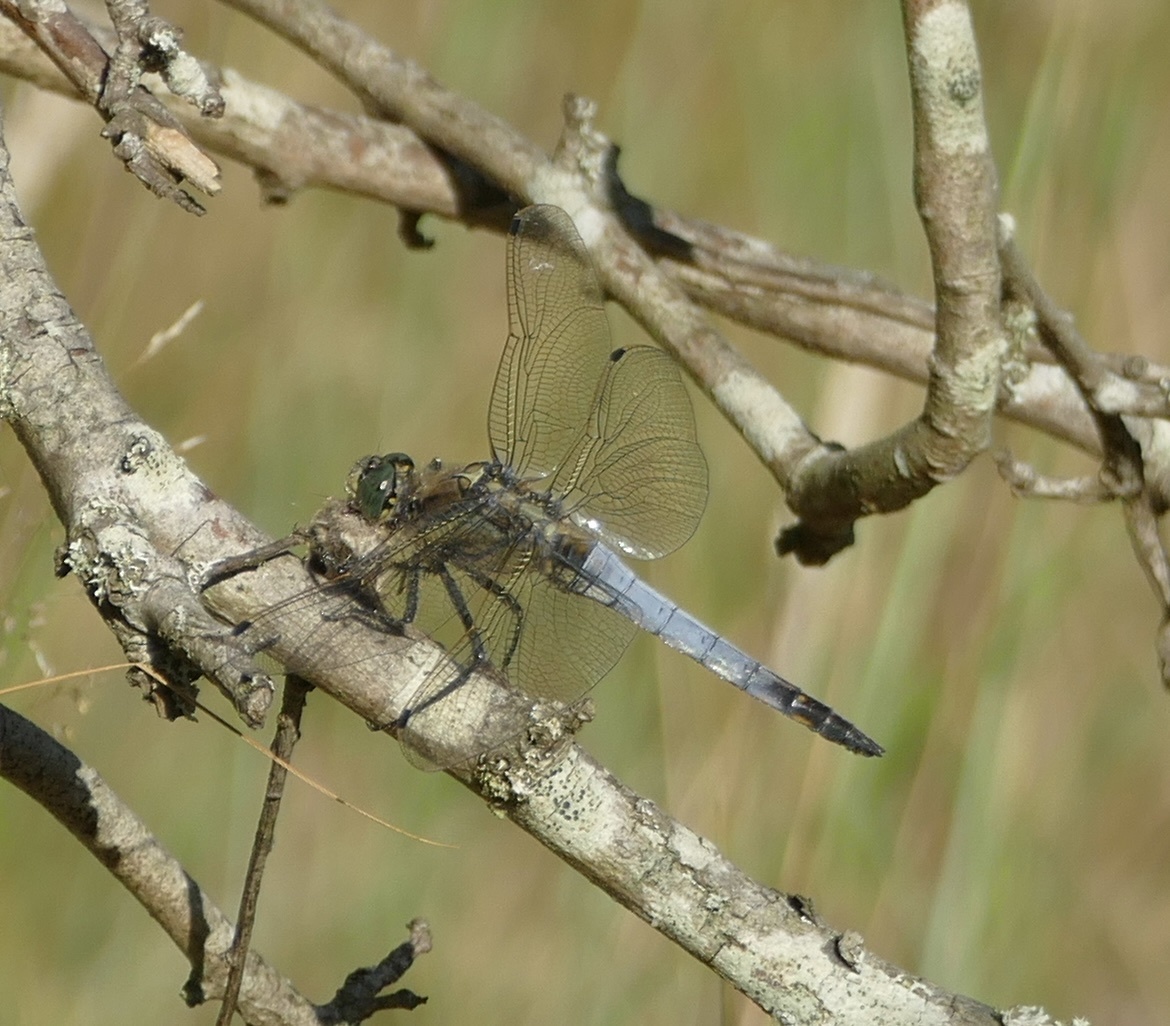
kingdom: Animalia
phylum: Arthropoda
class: Insecta
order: Odonata
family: Libellulidae
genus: Orthetrum
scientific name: Orthetrum cancellatum
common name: Black-tailed skimmer
